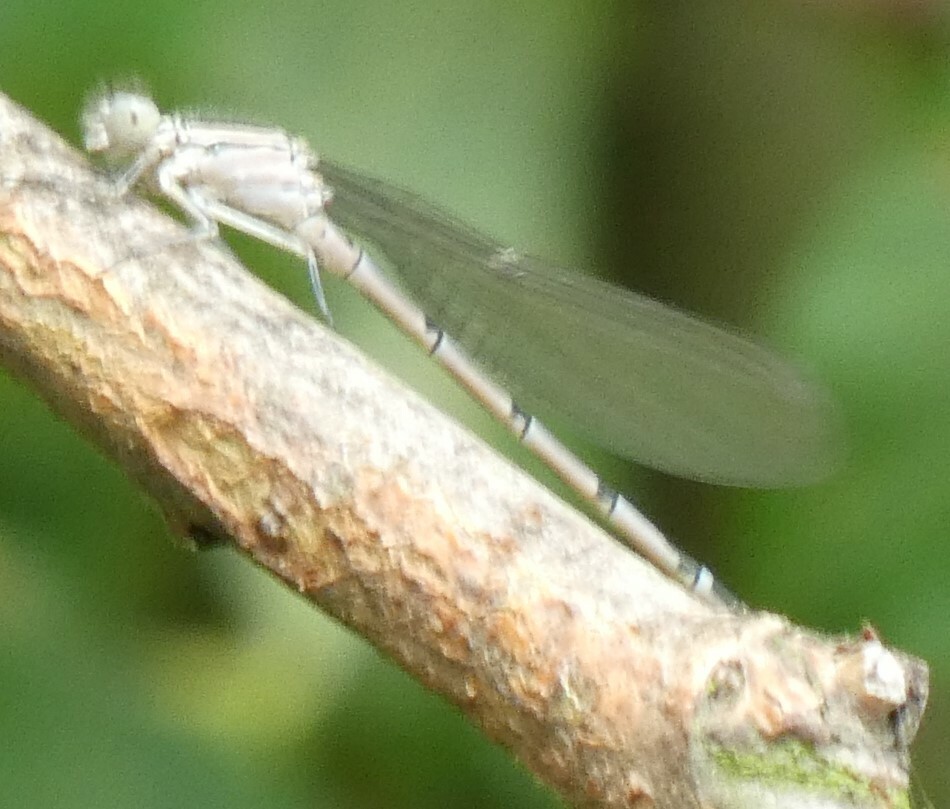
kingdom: Animalia
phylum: Arthropoda
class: Insecta
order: Odonata
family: Coenagrionidae
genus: Enallagma
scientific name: Enallagma cyathigerum
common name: Common blue damselfly
